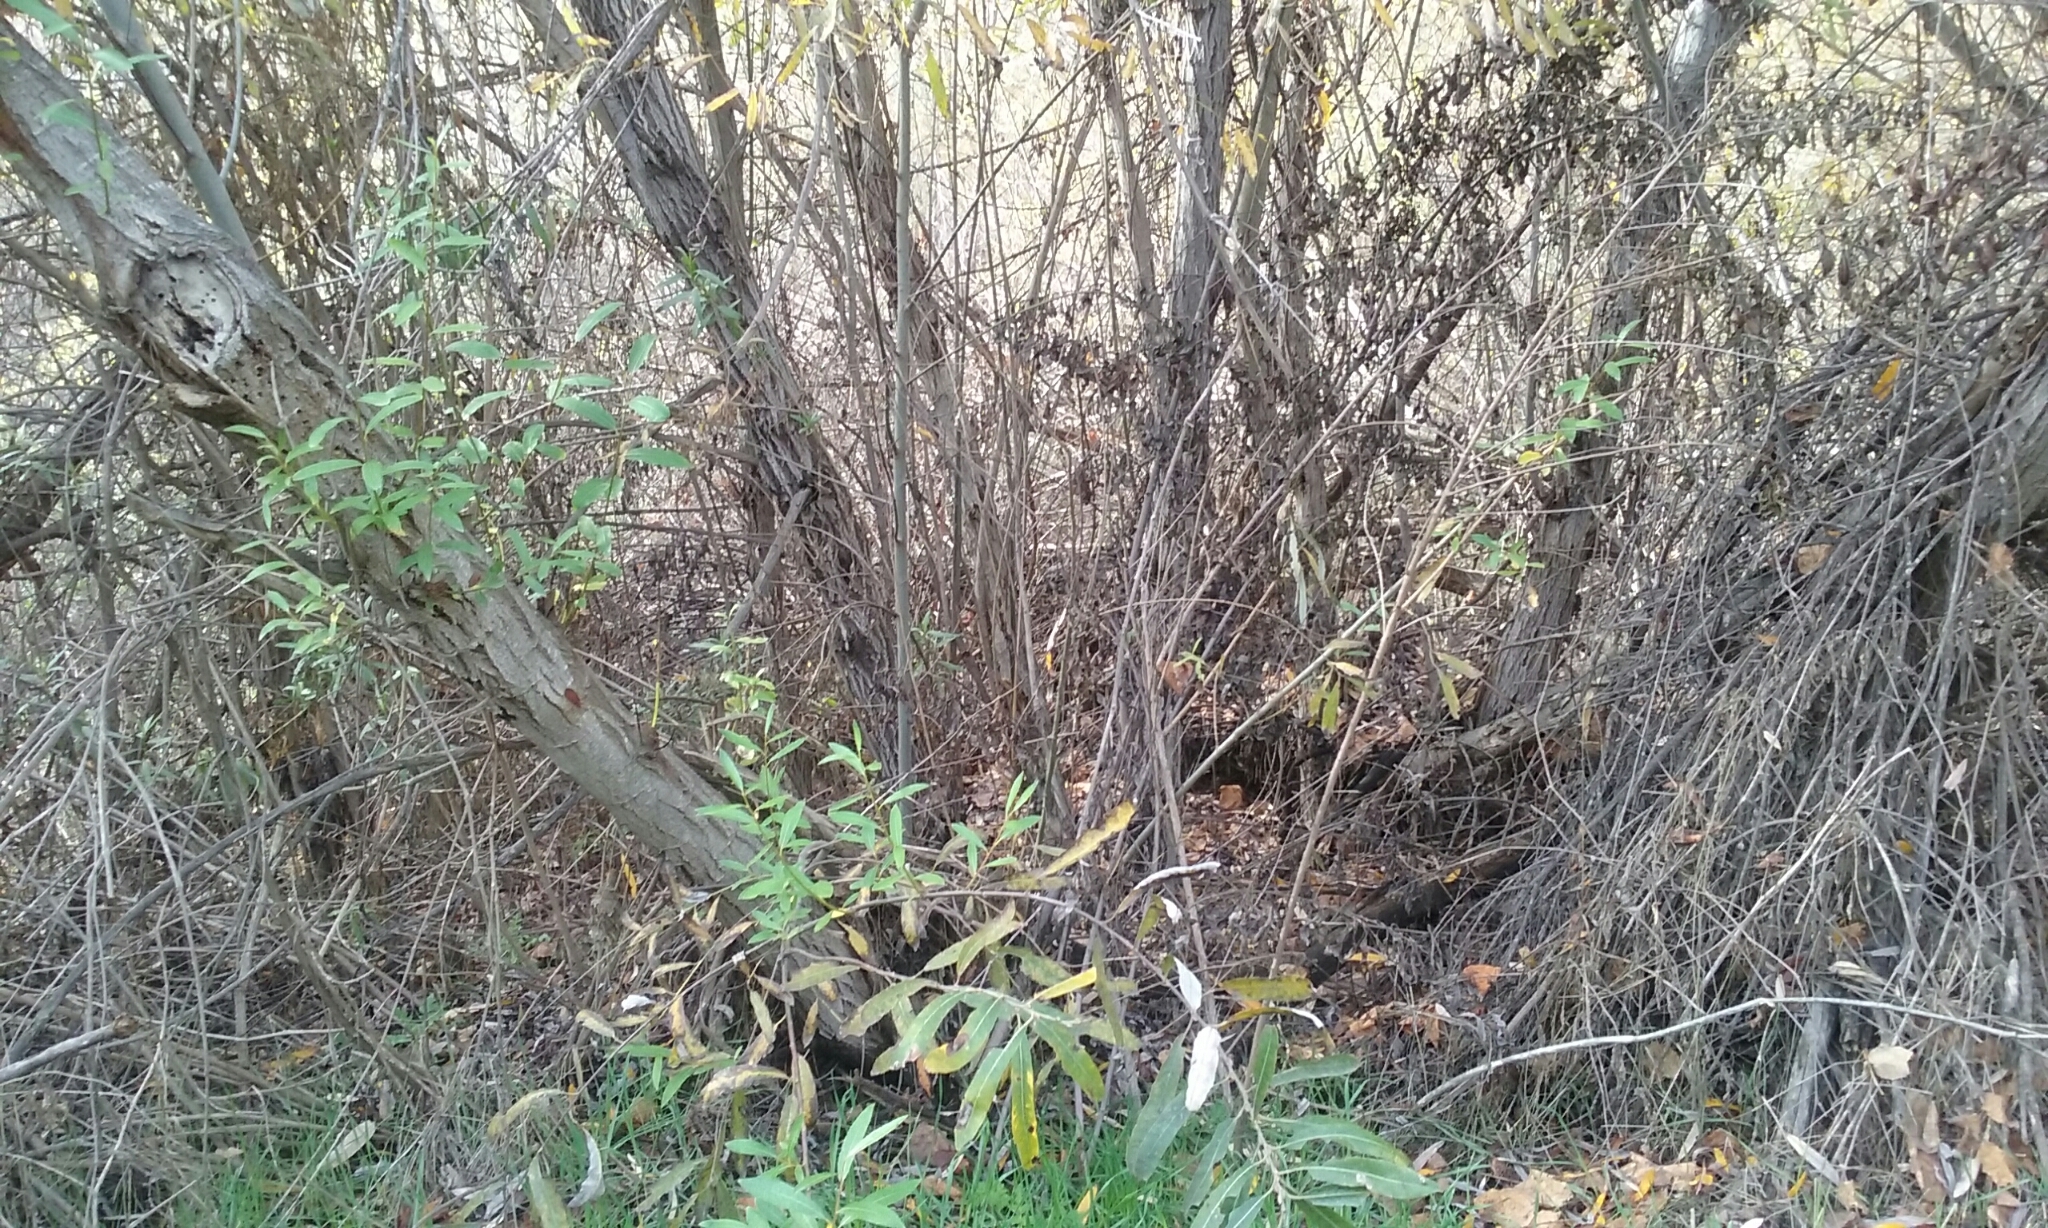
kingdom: Plantae
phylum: Tracheophyta
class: Magnoliopsida
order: Malpighiales
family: Salicaceae
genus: Salix
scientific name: Salix lasiolepis
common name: Arroyo willow
